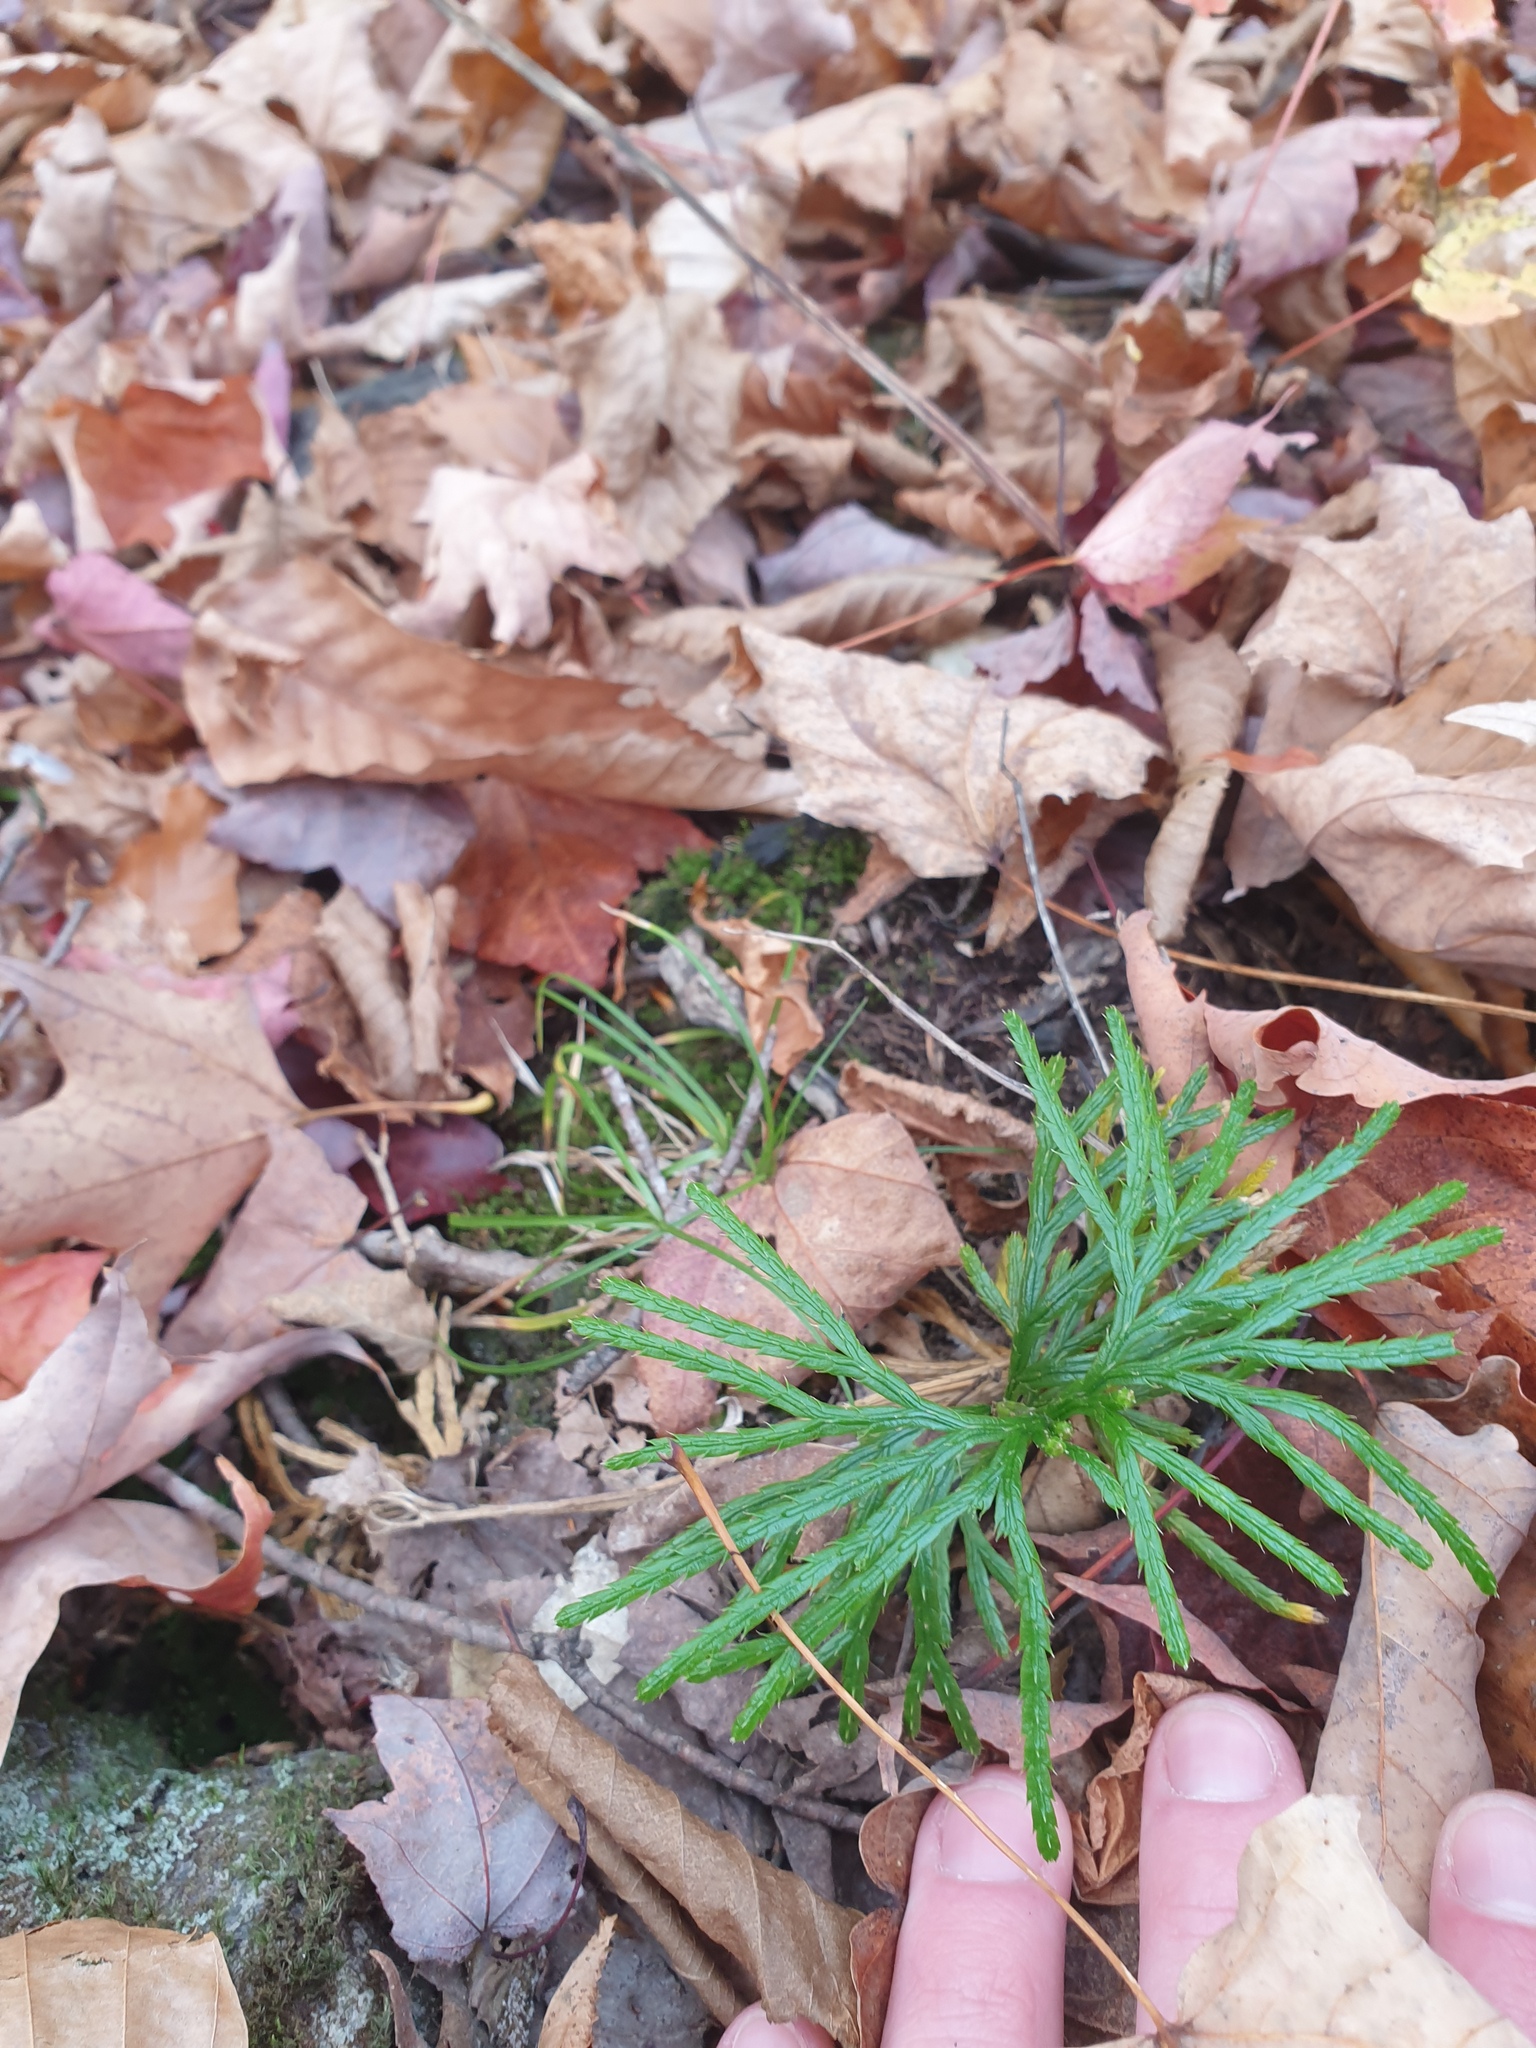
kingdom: Plantae
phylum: Tracheophyta
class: Lycopodiopsida
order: Lycopodiales
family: Lycopodiaceae
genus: Diphasiastrum
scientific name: Diphasiastrum digitatum
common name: Southern running-pine
